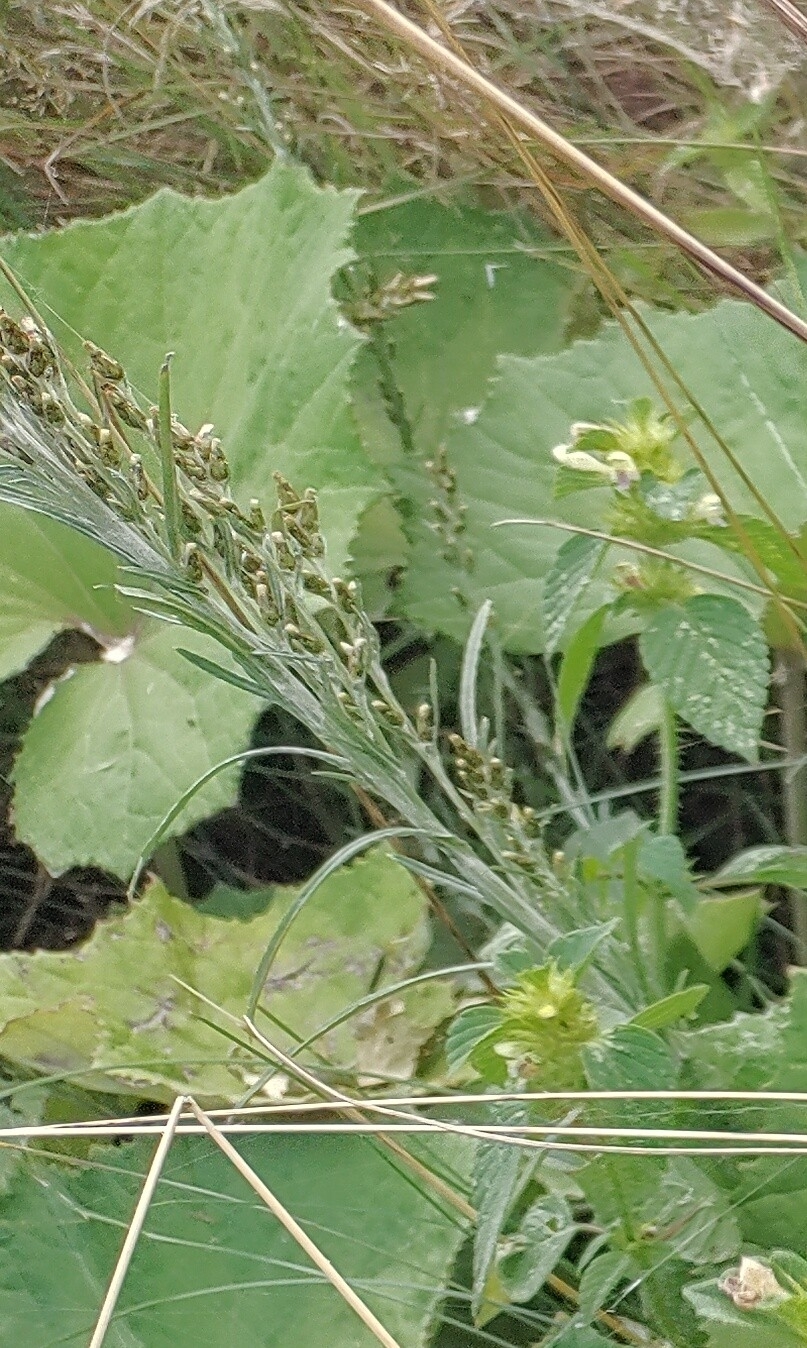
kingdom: Plantae
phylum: Tracheophyta
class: Magnoliopsida
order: Asterales
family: Asteraceae
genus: Omalotheca
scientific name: Omalotheca sylvatica
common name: Heath cudweed
